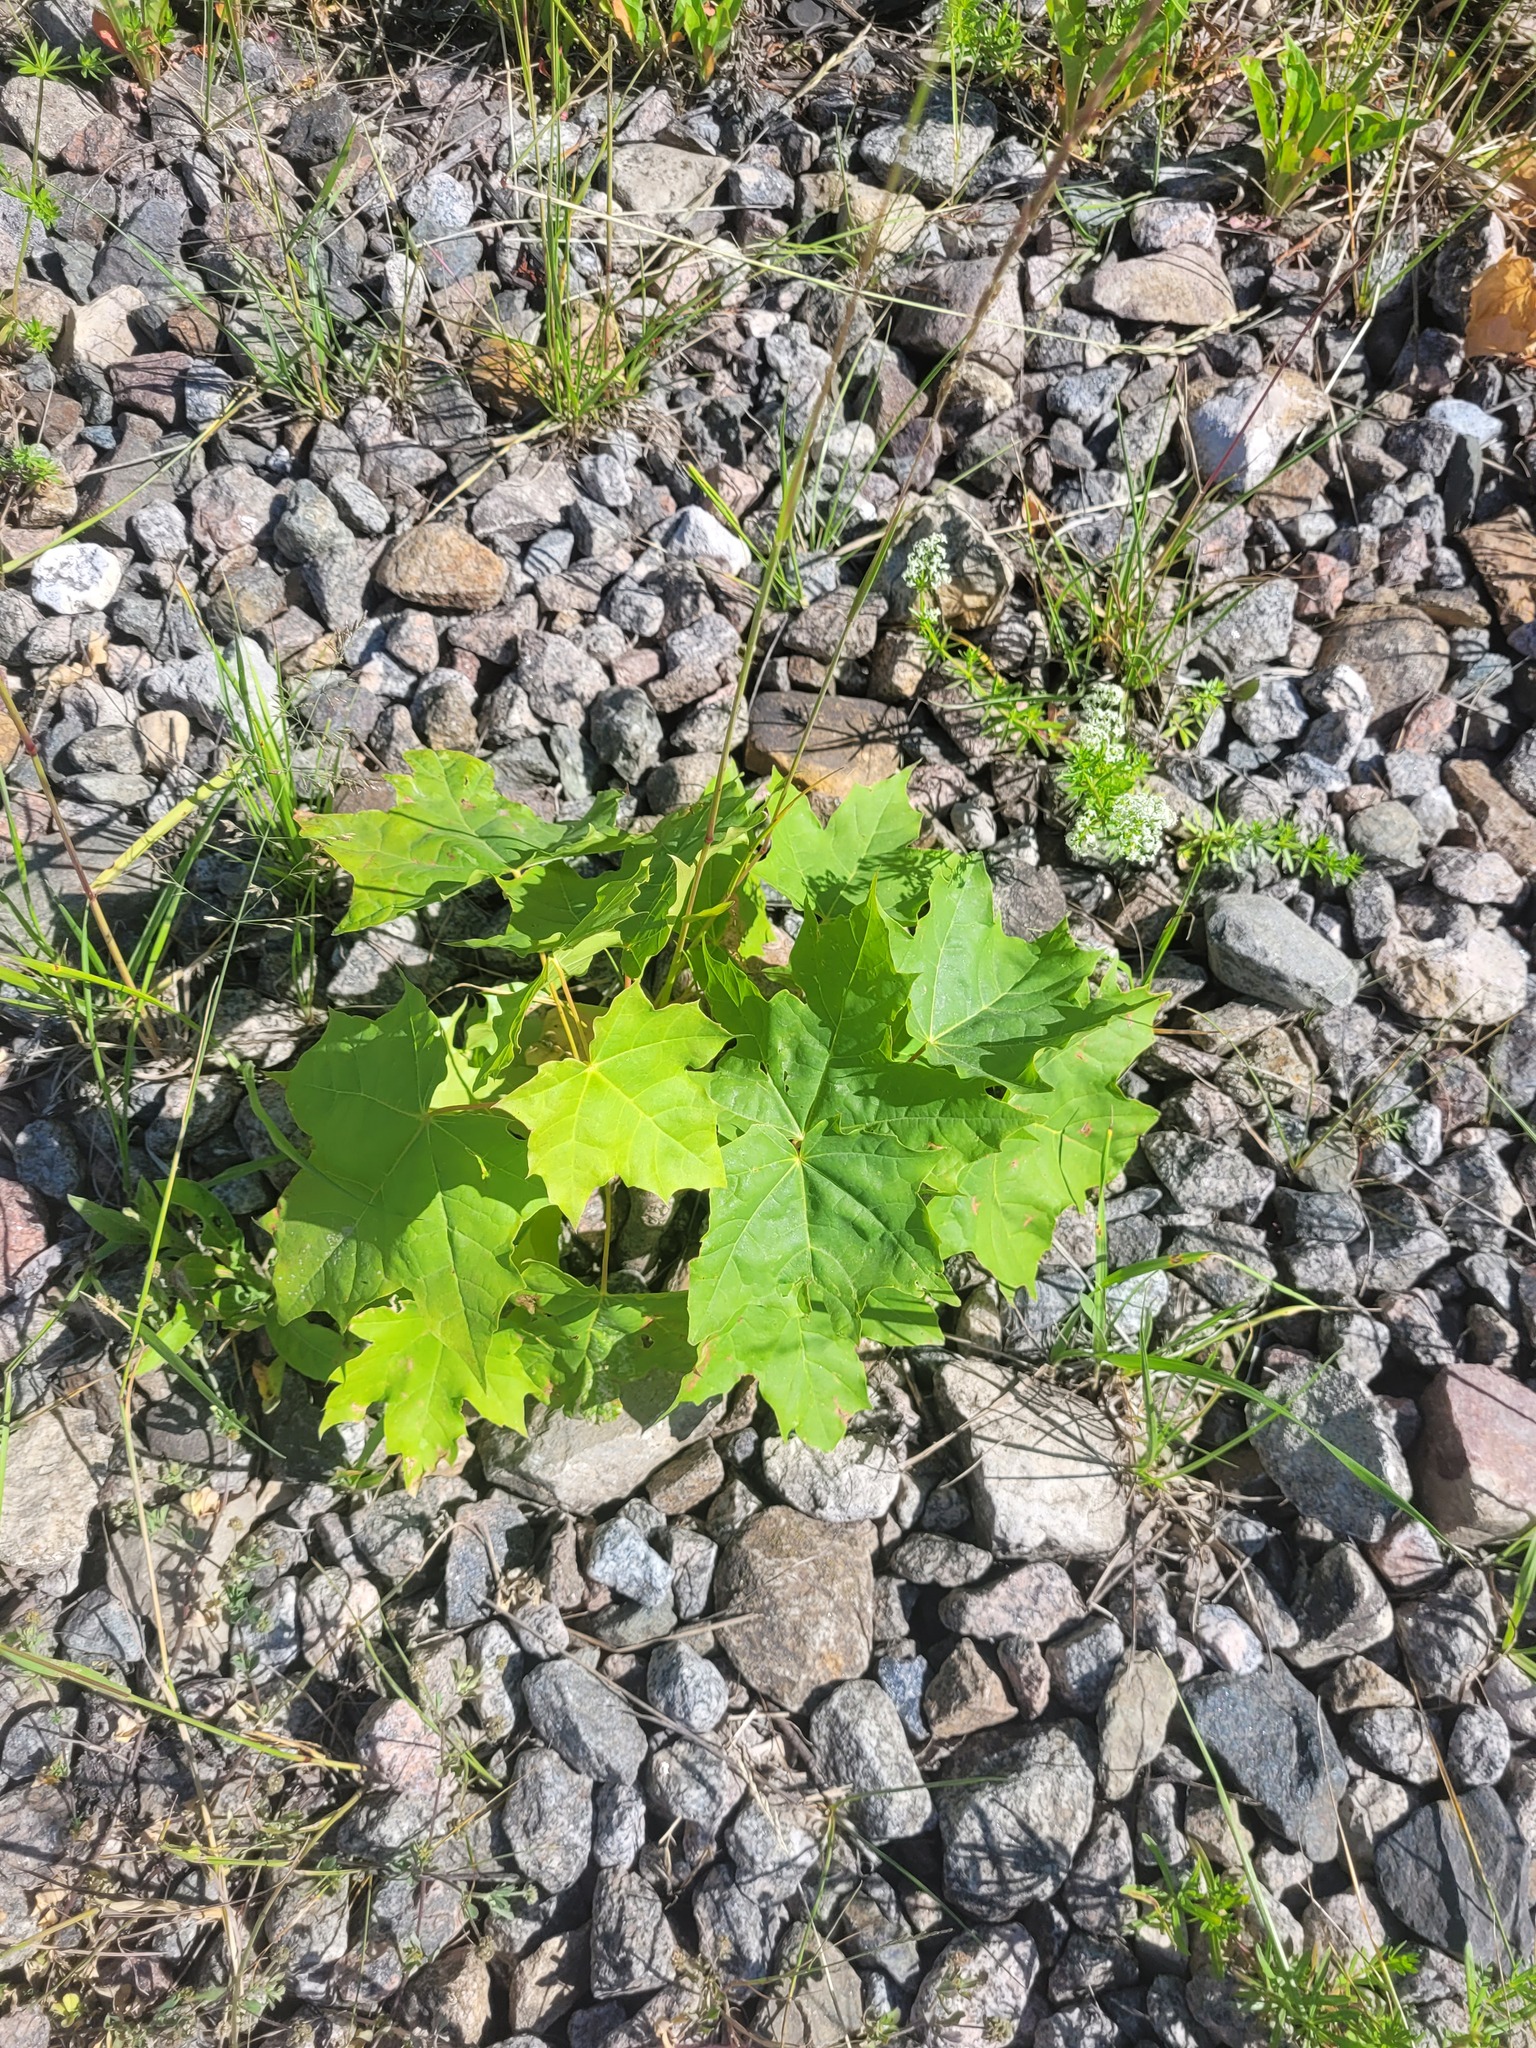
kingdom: Plantae
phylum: Tracheophyta
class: Magnoliopsida
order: Sapindales
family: Sapindaceae
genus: Acer
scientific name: Acer platanoides
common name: Norway maple
